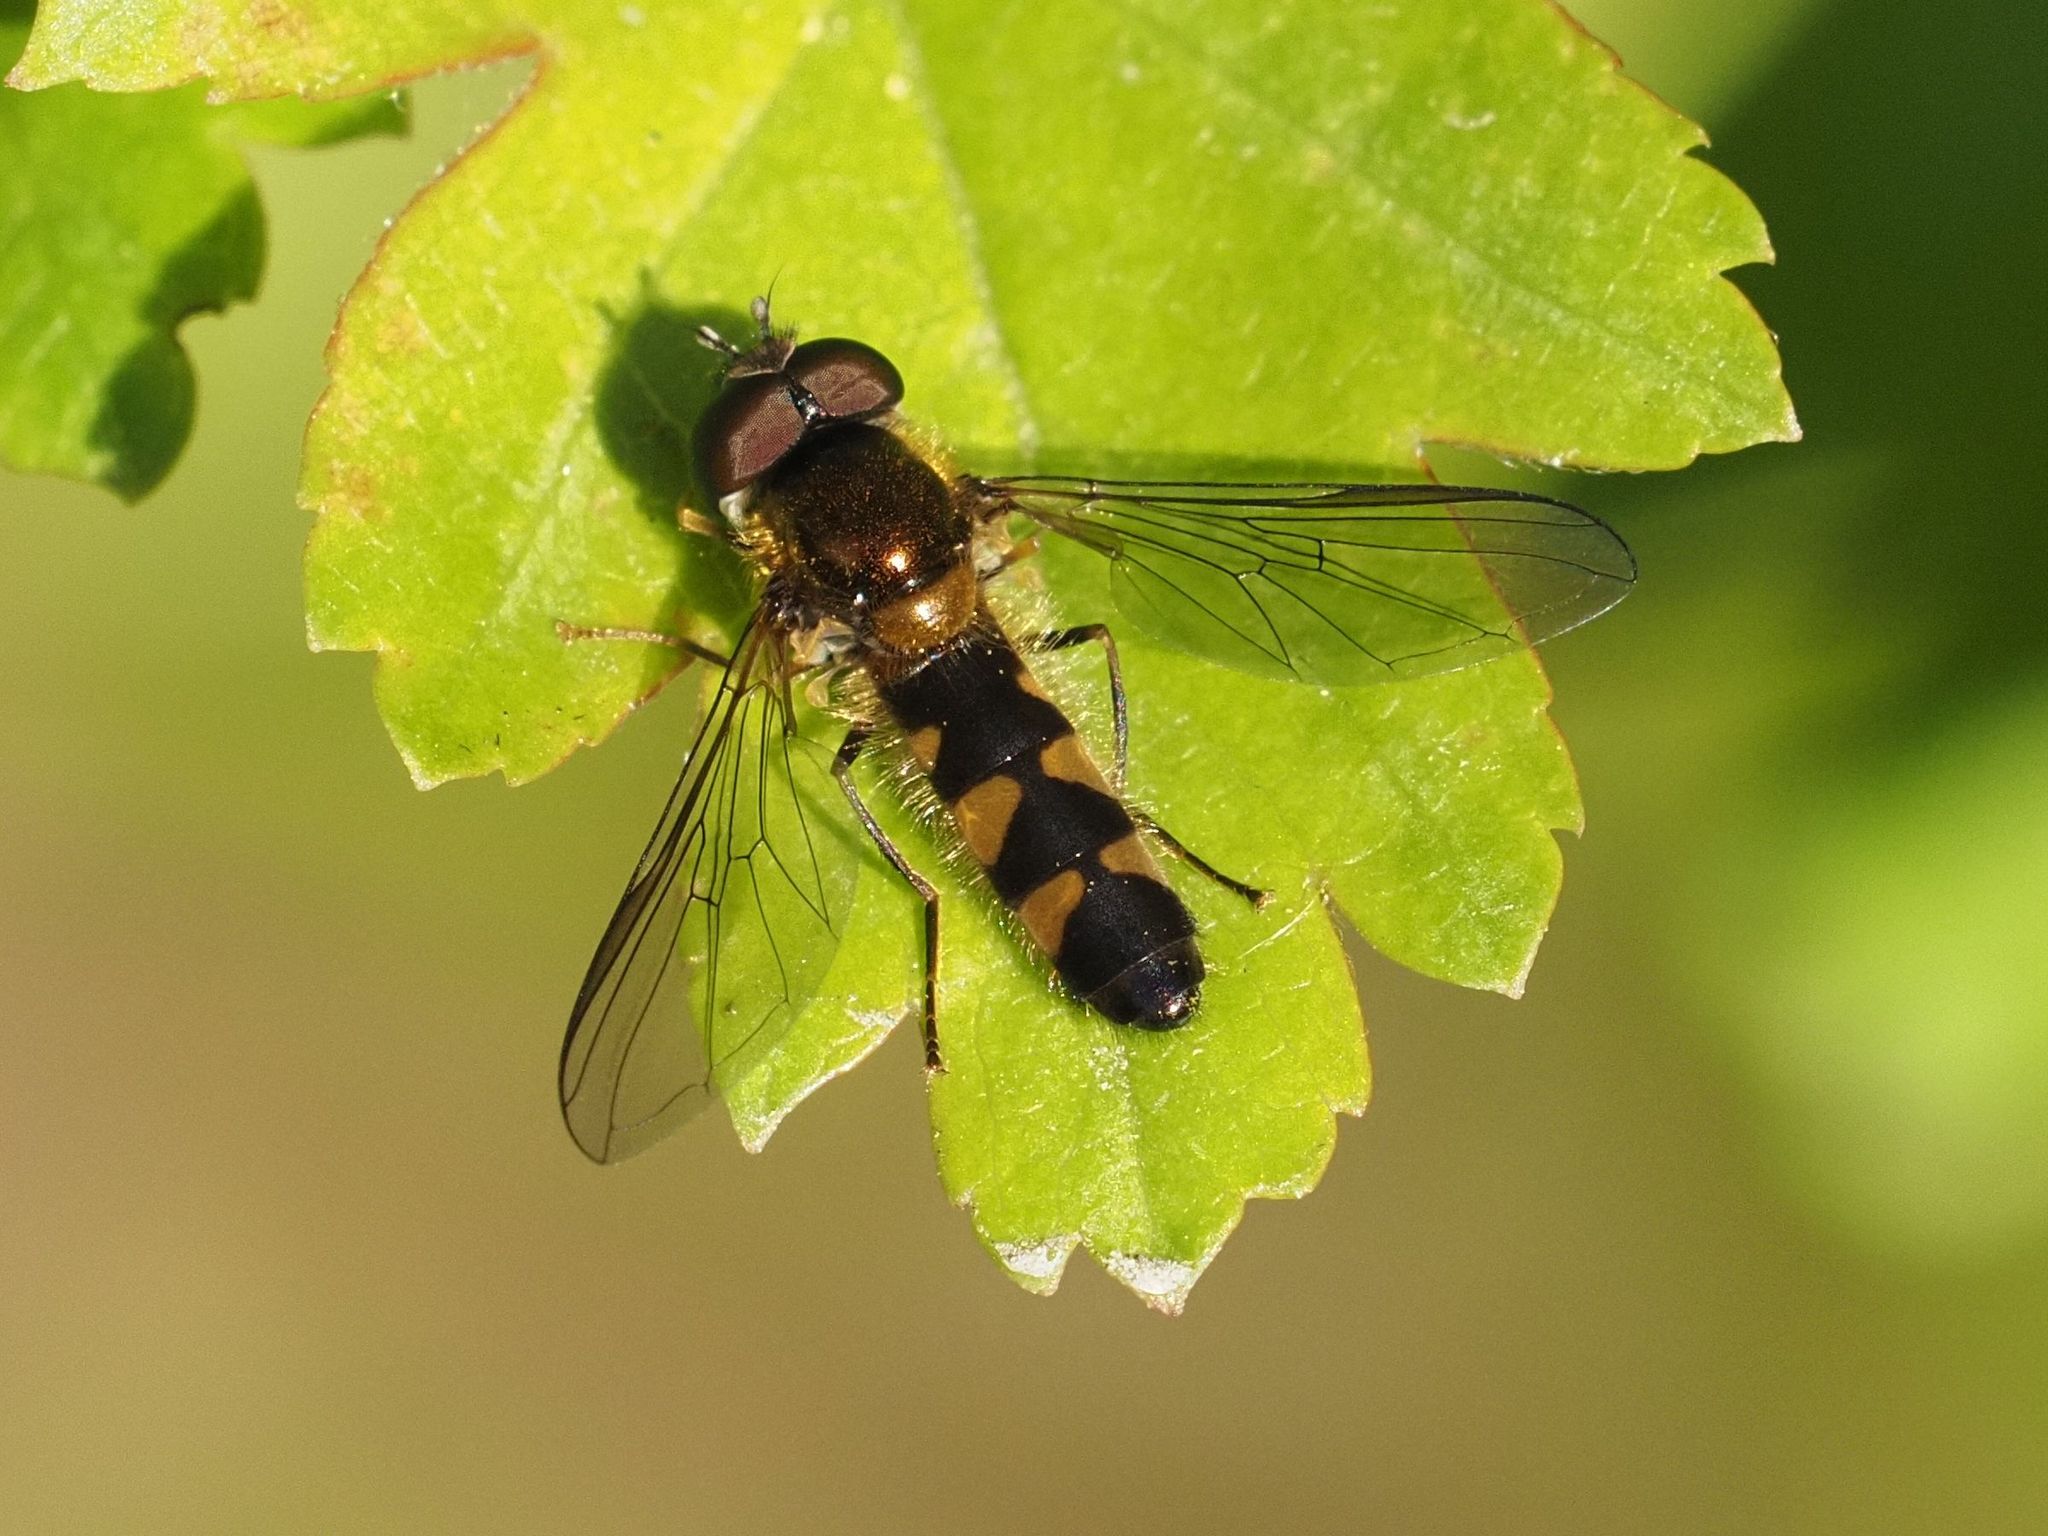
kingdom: Animalia
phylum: Arthropoda
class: Insecta
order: Diptera
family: Syrphidae
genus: Meligramma
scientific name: Meligramma triangulifera
